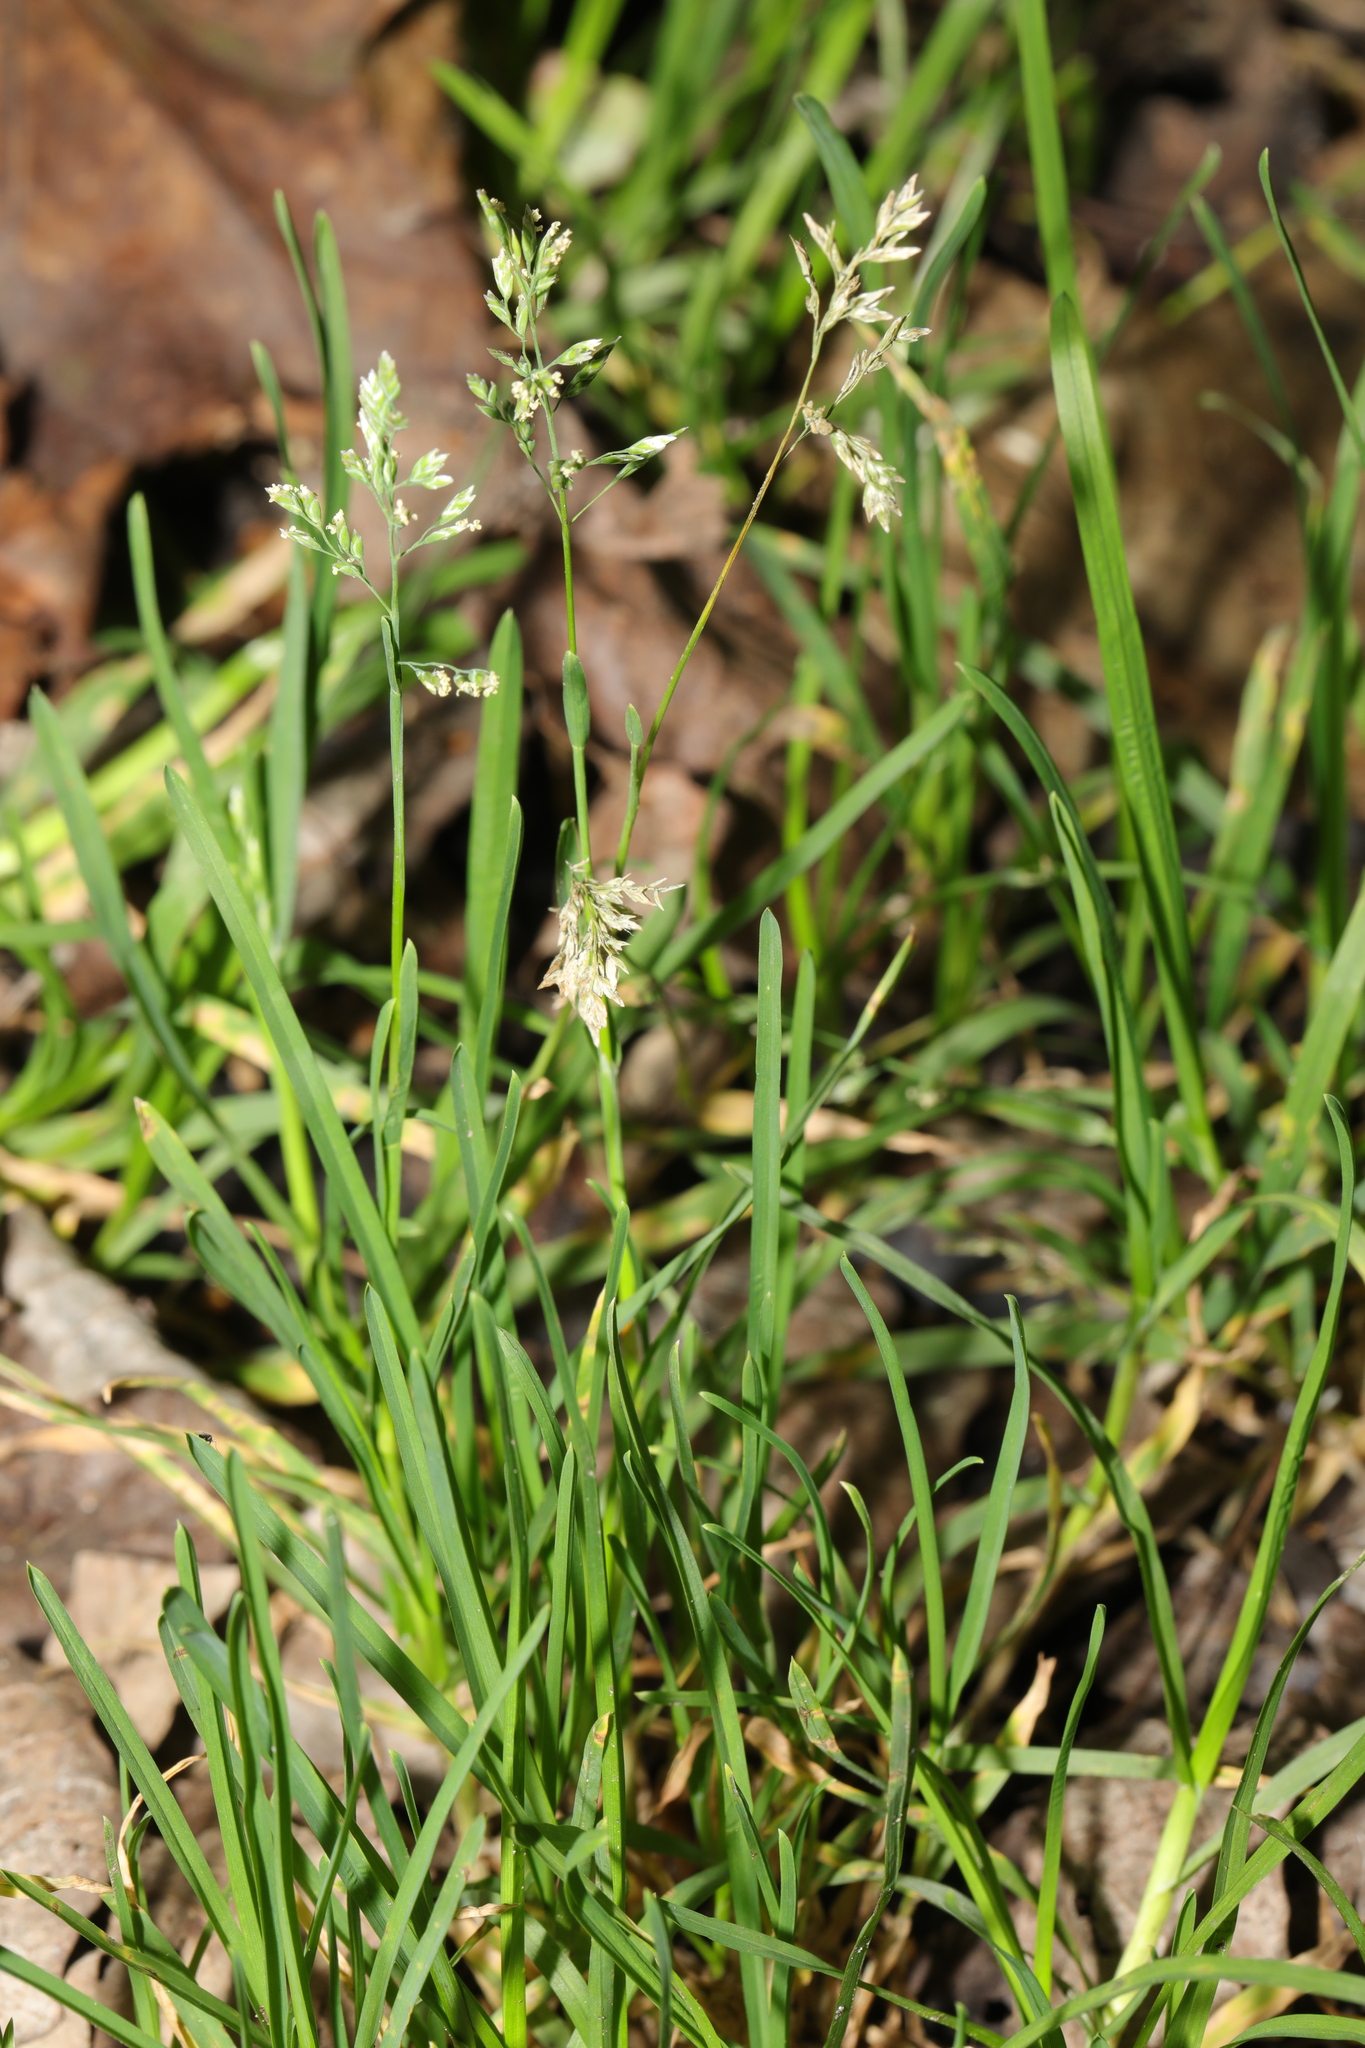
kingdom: Plantae
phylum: Tracheophyta
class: Liliopsida
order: Poales
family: Poaceae
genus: Poa
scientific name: Poa annua
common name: Annual bluegrass
